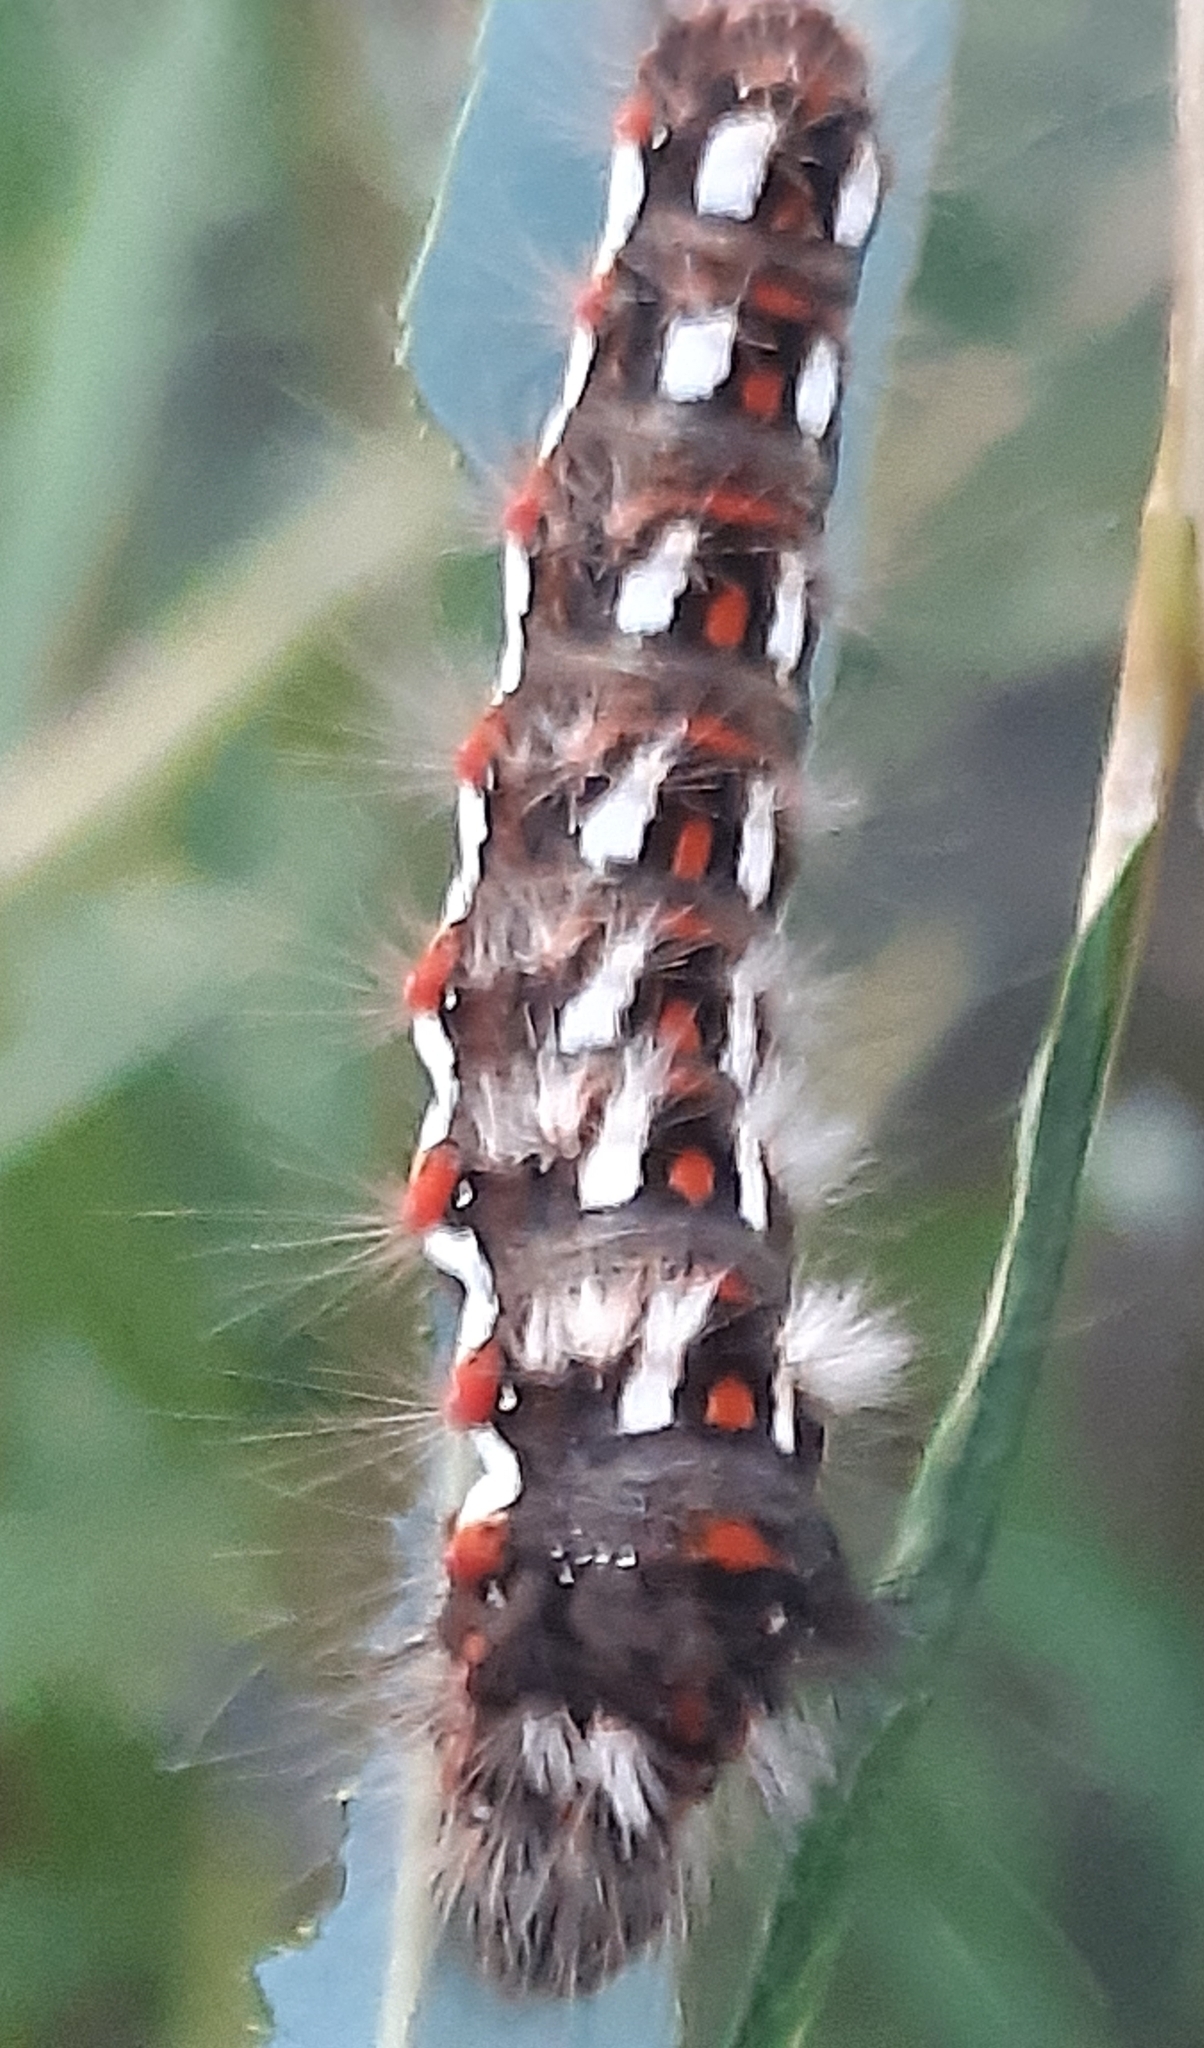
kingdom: Animalia
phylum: Arthropoda
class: Insecta
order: Lepidoptera
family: Noctuidae
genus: Acronicta
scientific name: Acronicta rumicis
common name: Knot grass
